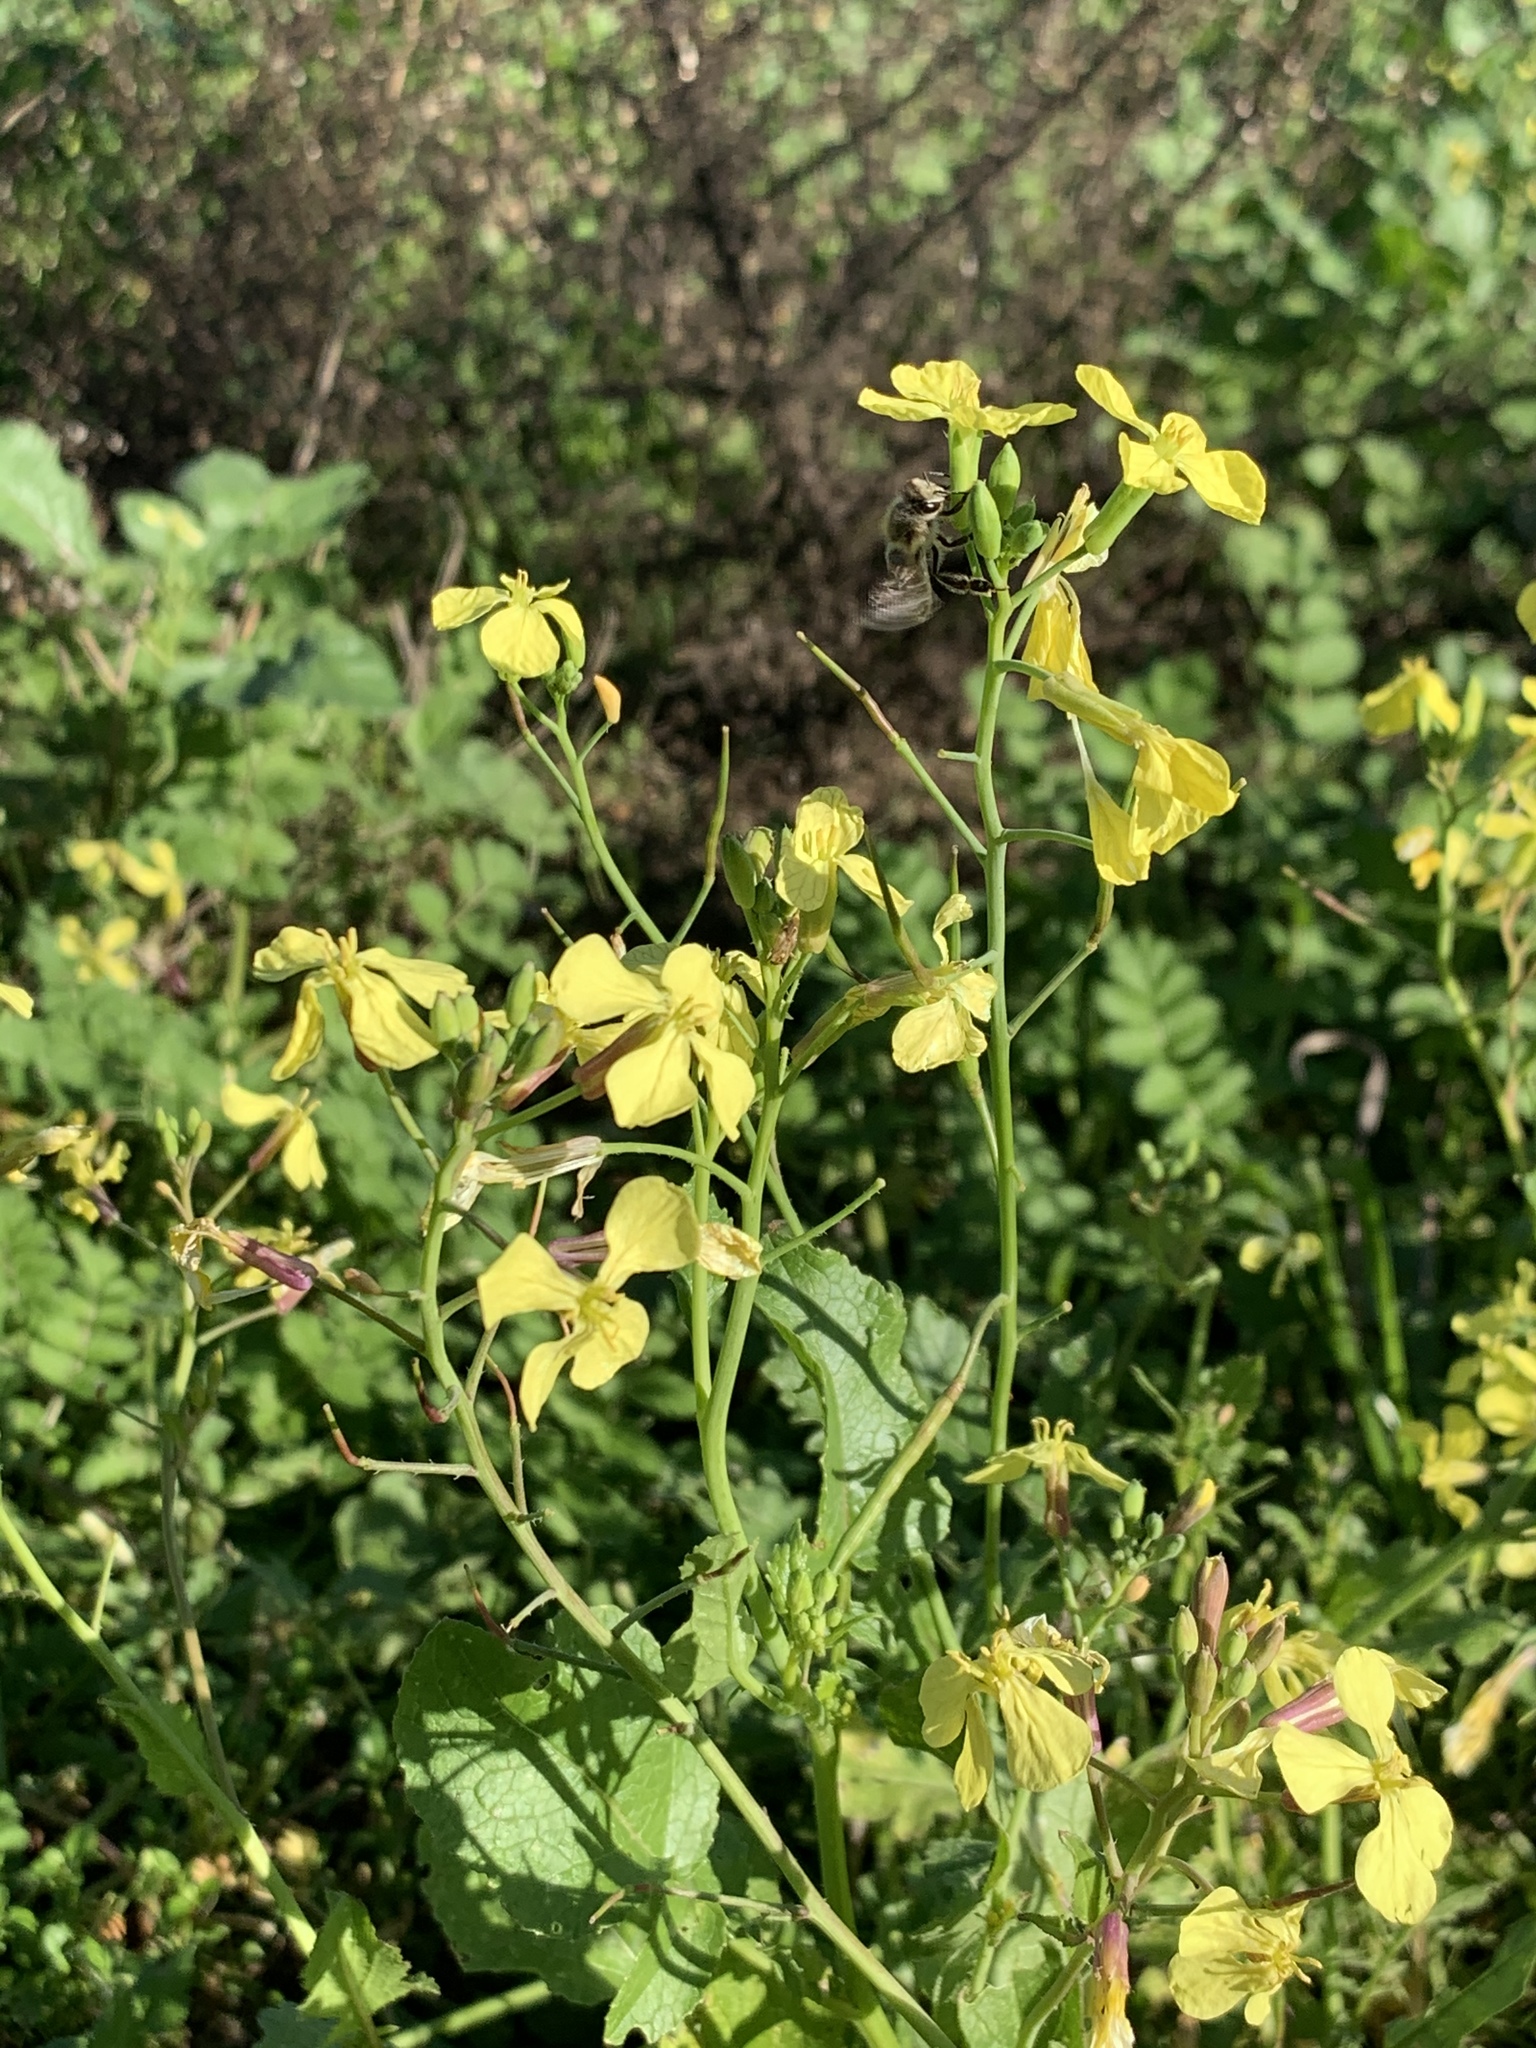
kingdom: Plantae
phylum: Tracheophyta
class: Magnoliopsida
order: Brassicales
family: Brassicaceae
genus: Raphanus
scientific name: Raphanus raphanistrum
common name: Wild radish
